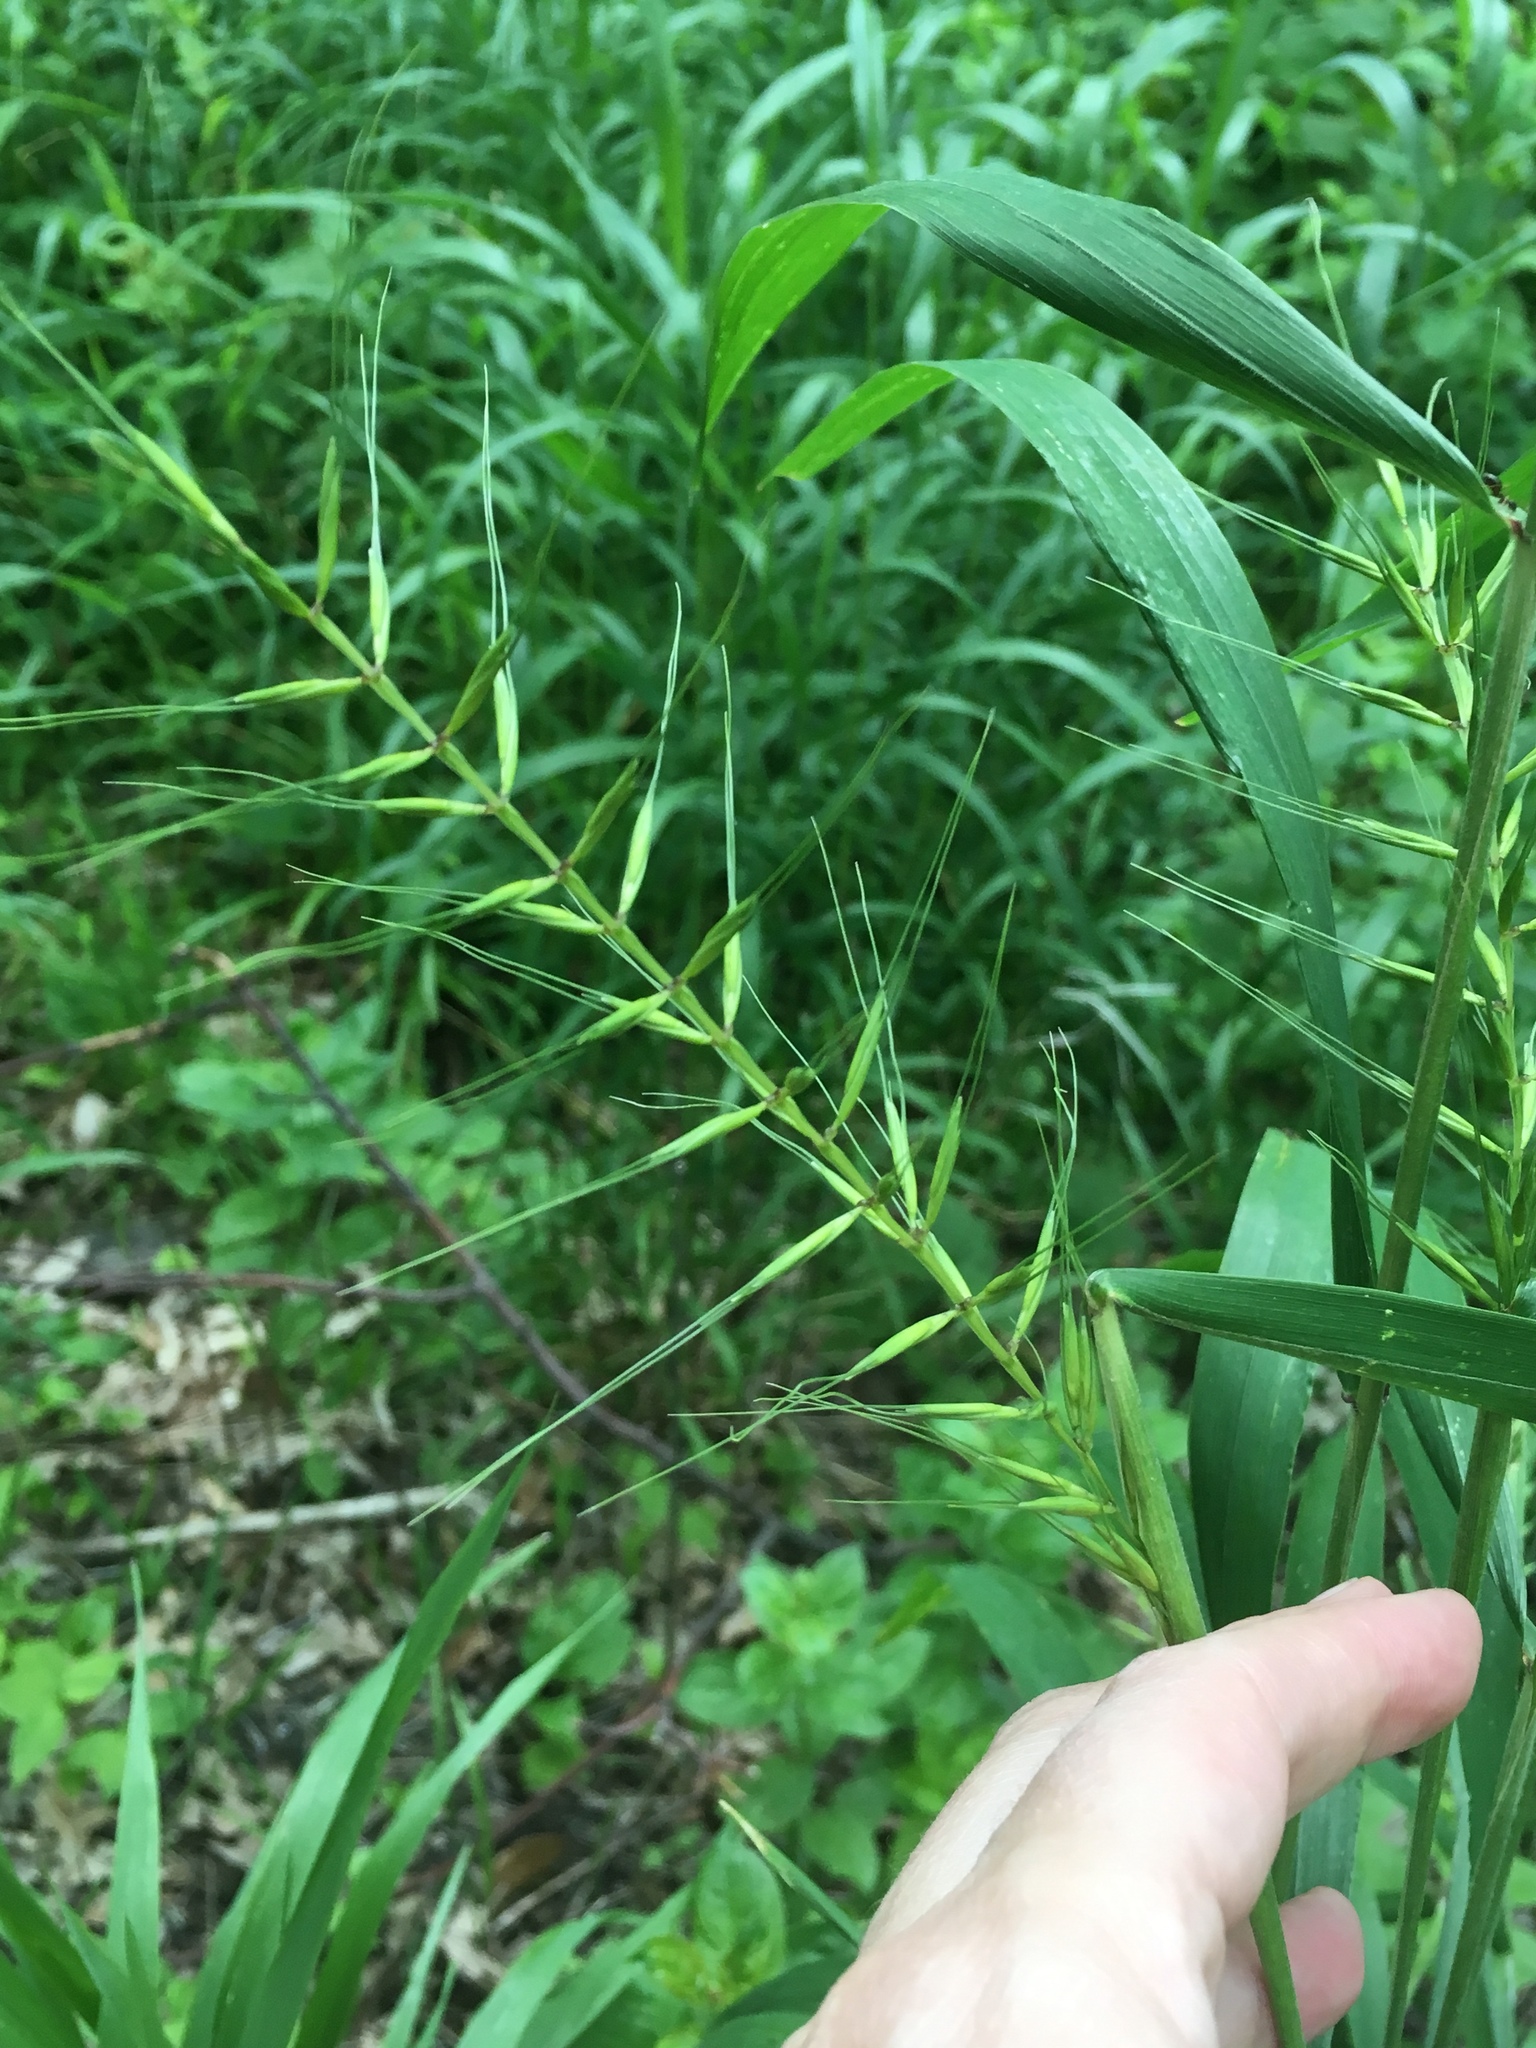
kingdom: Plantae
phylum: Tracheophyta
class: Liliopsida
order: Poales
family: Poaceae
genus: Elymus
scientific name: Elymus hystrix
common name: Bottlebrush grass
